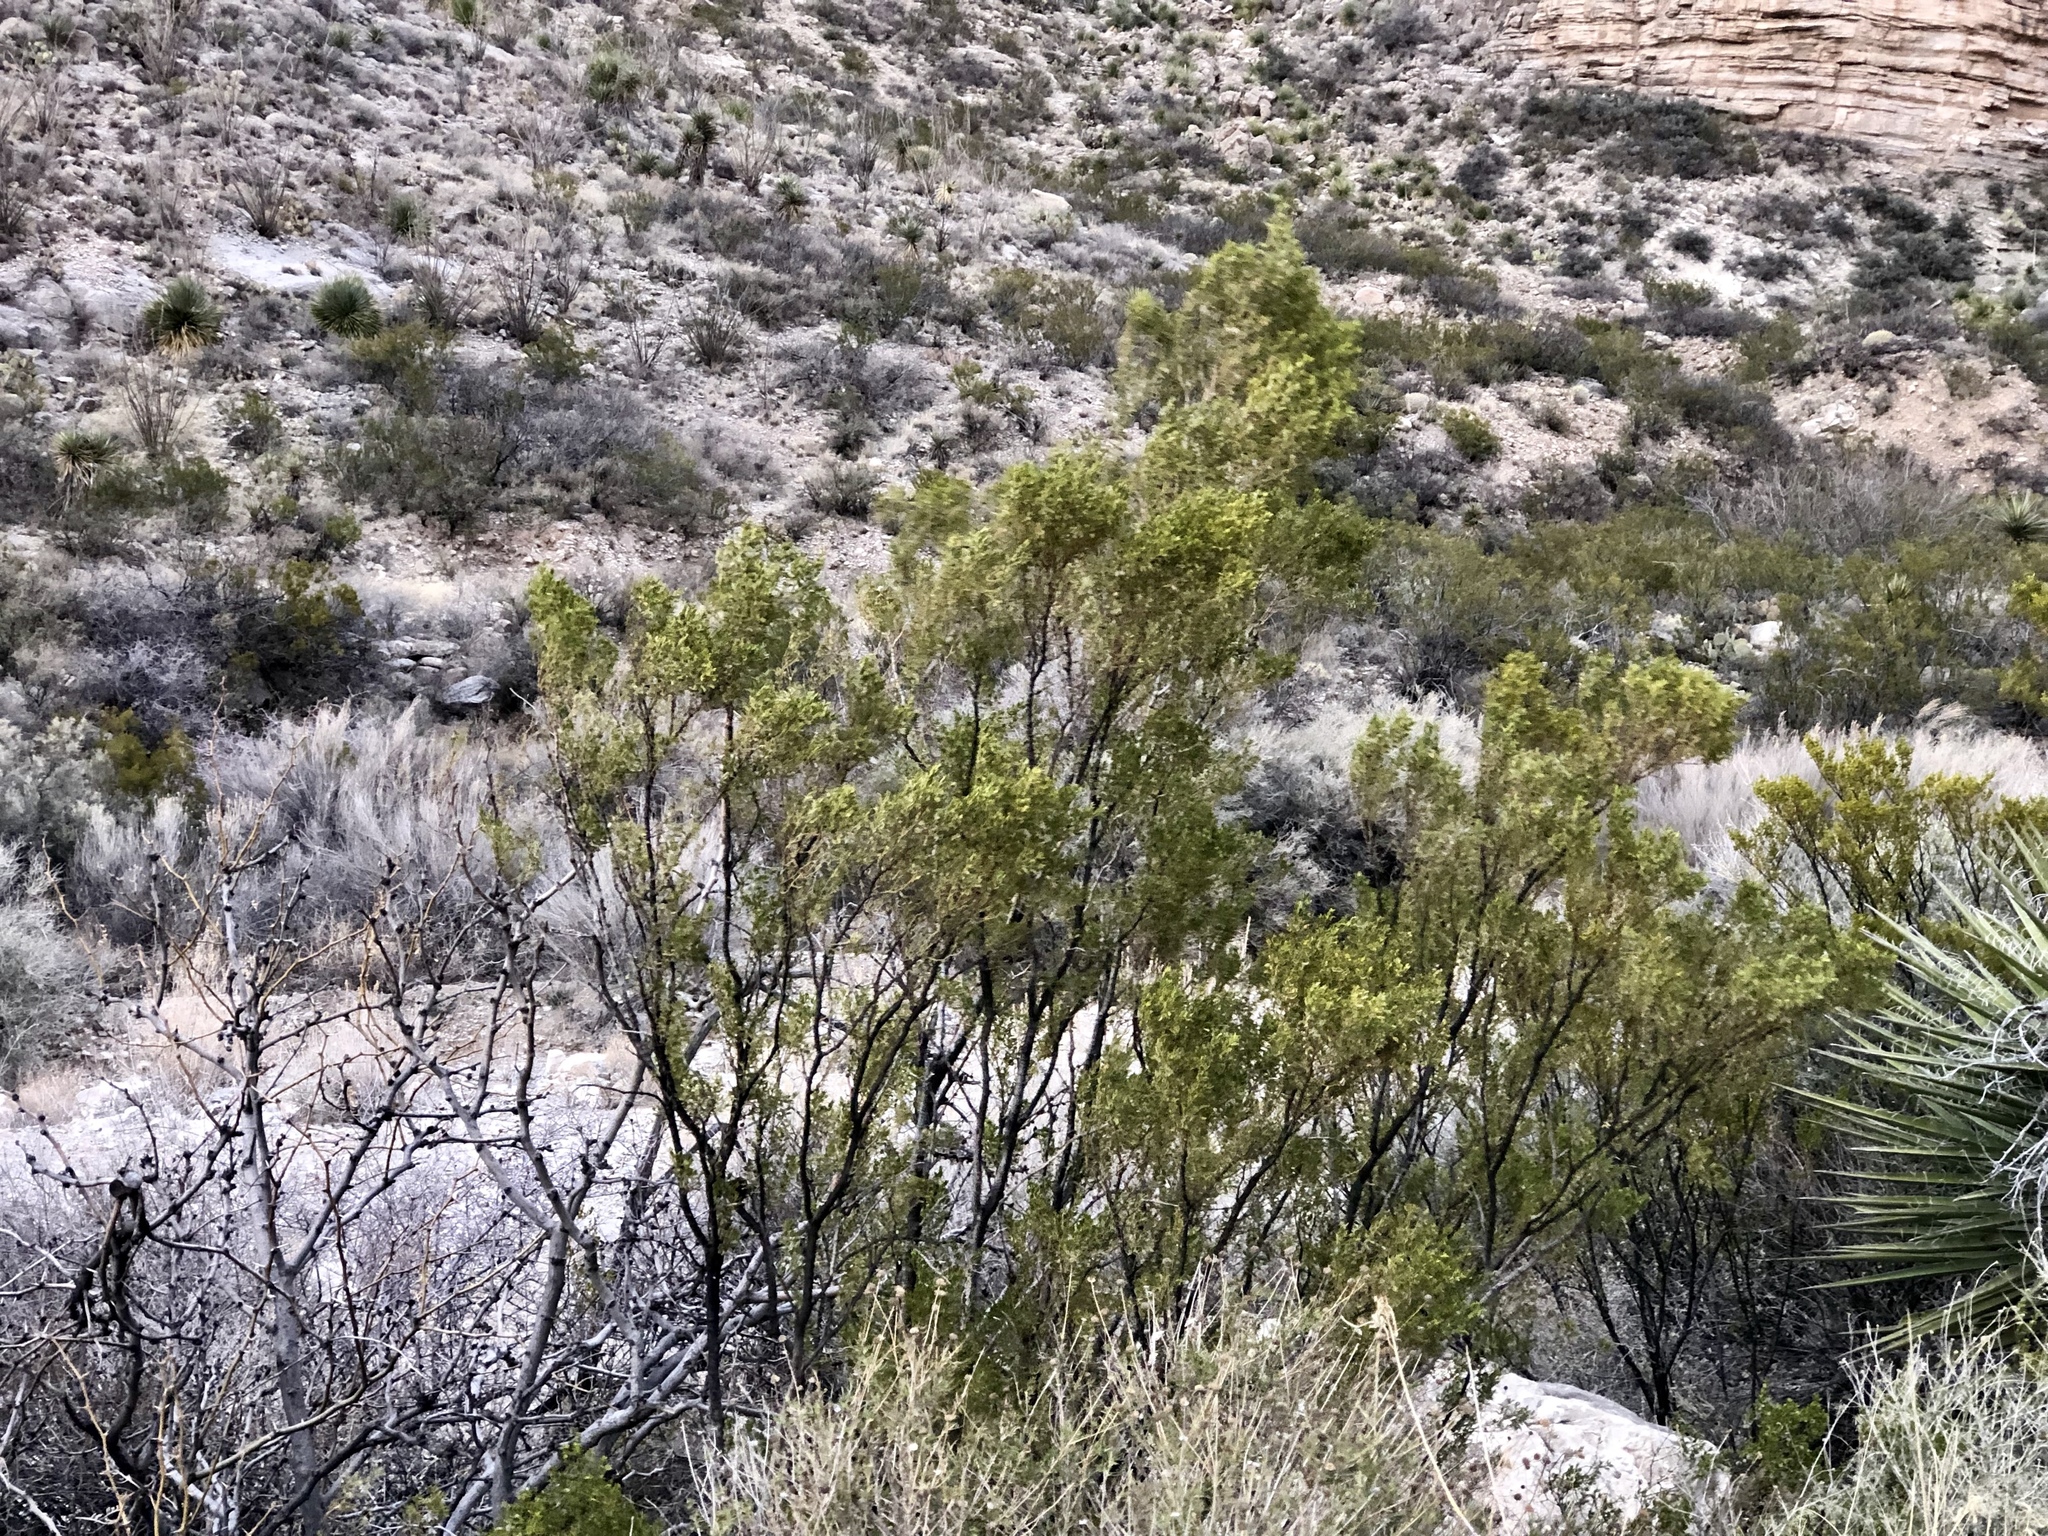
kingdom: Plantae
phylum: Tracheophyta
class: Magnoliopsida
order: Zygophyllales
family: Zygophyllaceae
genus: Larrea
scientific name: Larrea tridentata
